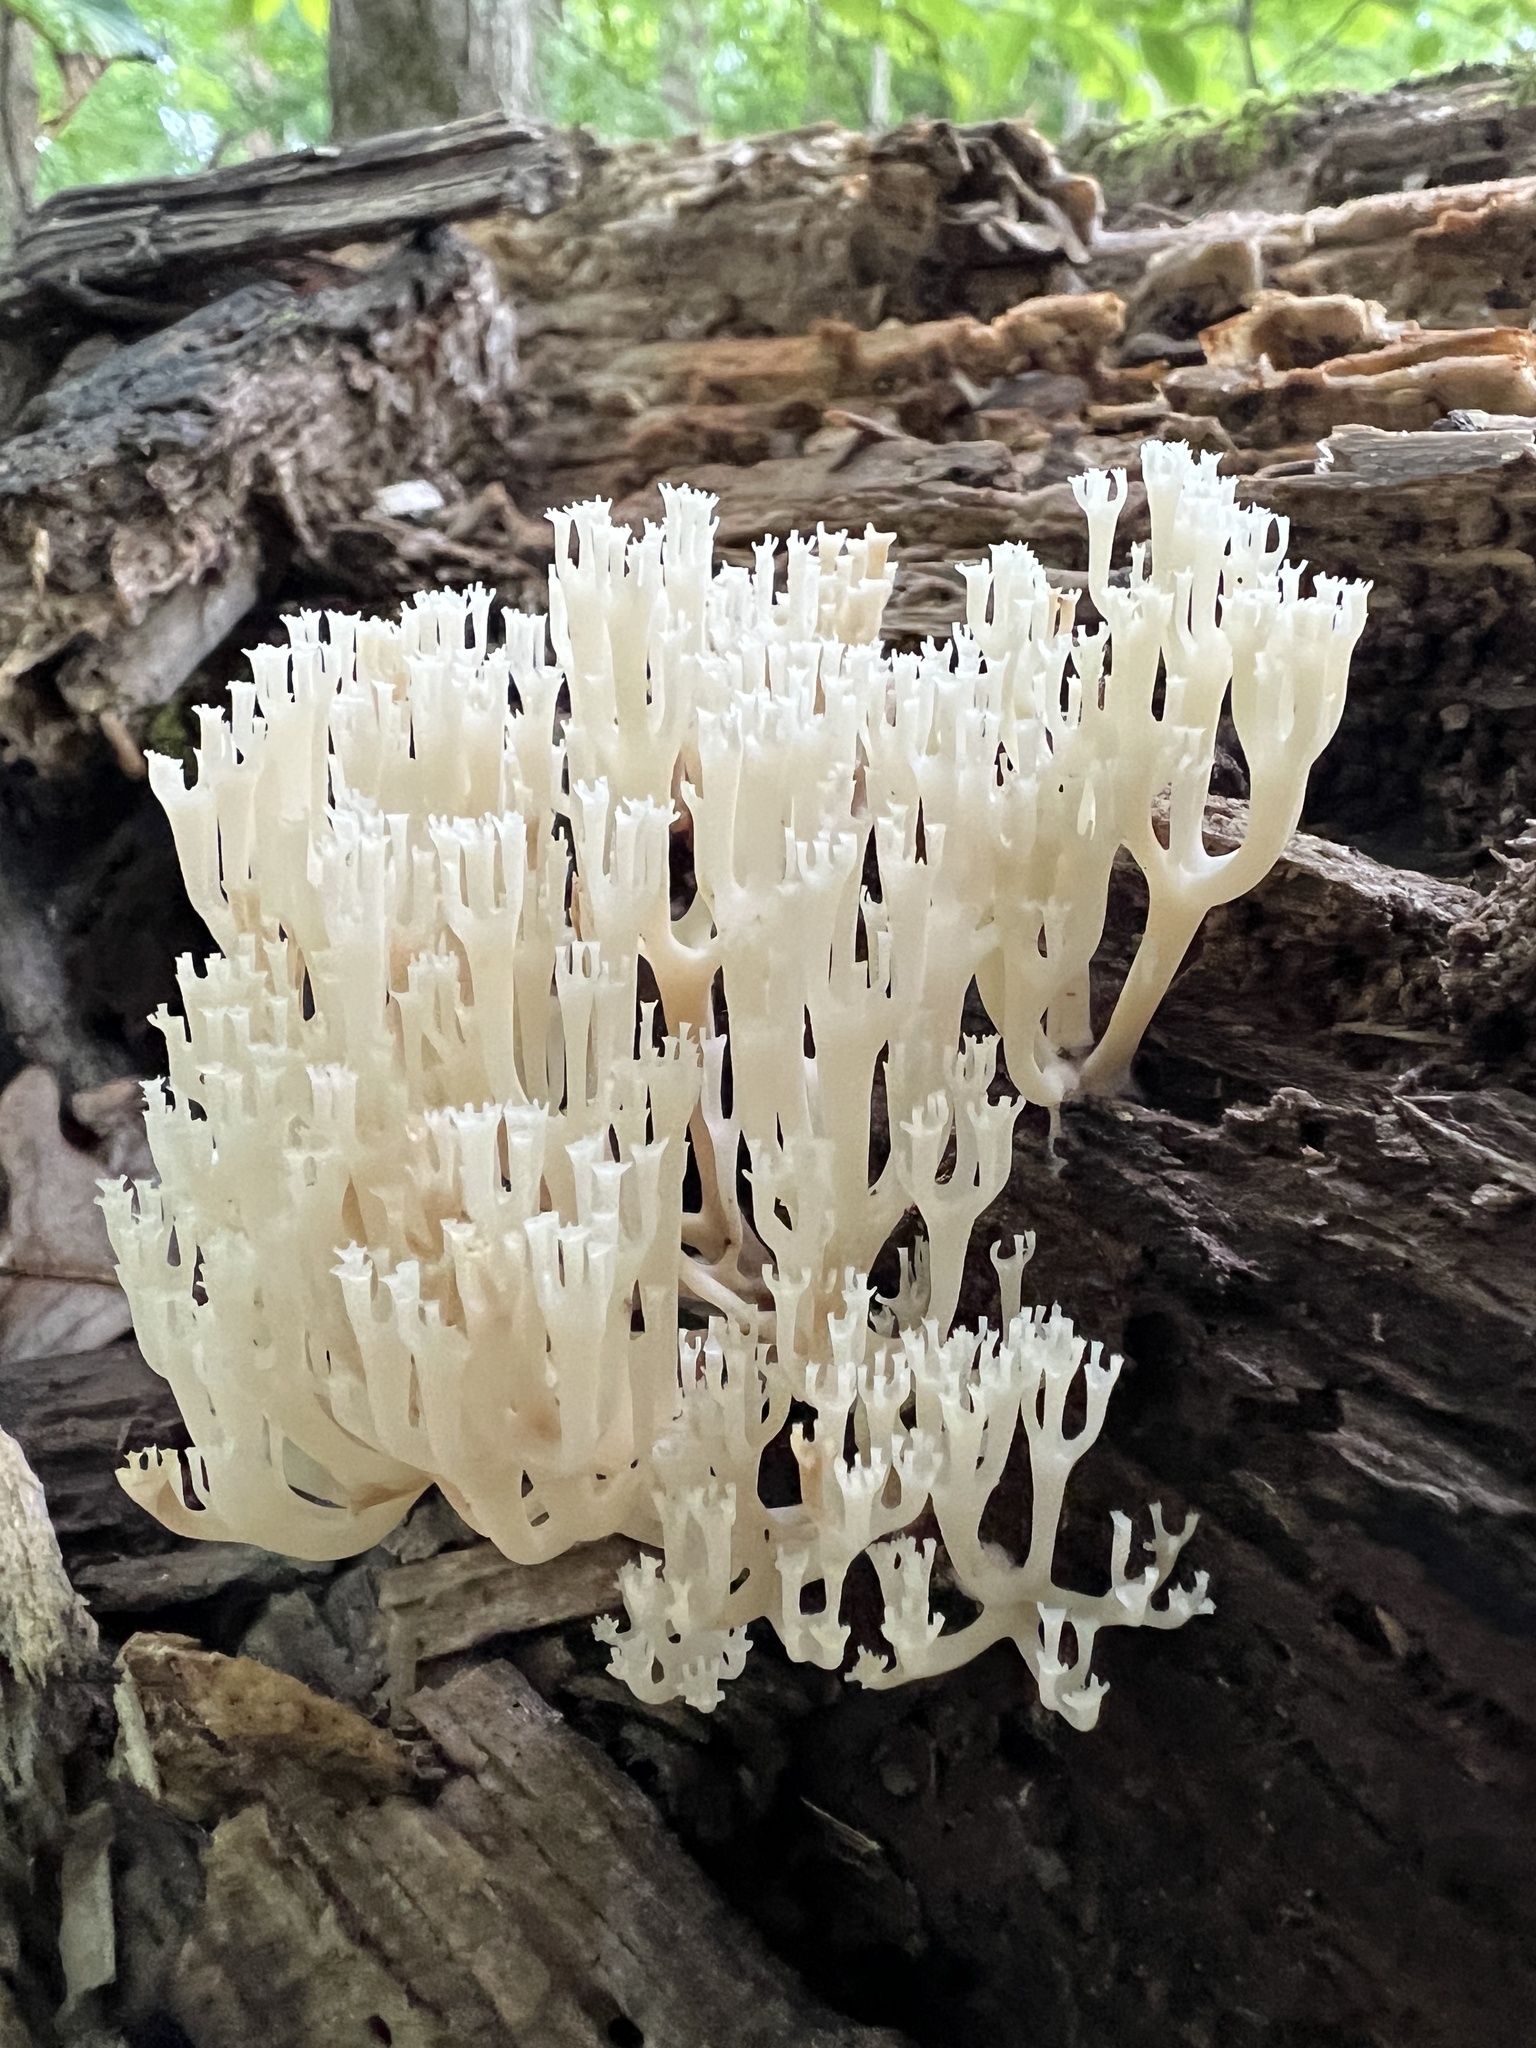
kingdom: Fungi
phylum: Basidiomycota
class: Agaricomycetes
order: Russulales
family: Auriscalpiaceae
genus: Artomyces
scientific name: Artomyces pyxidatus
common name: Crown-tipped coral fungus
